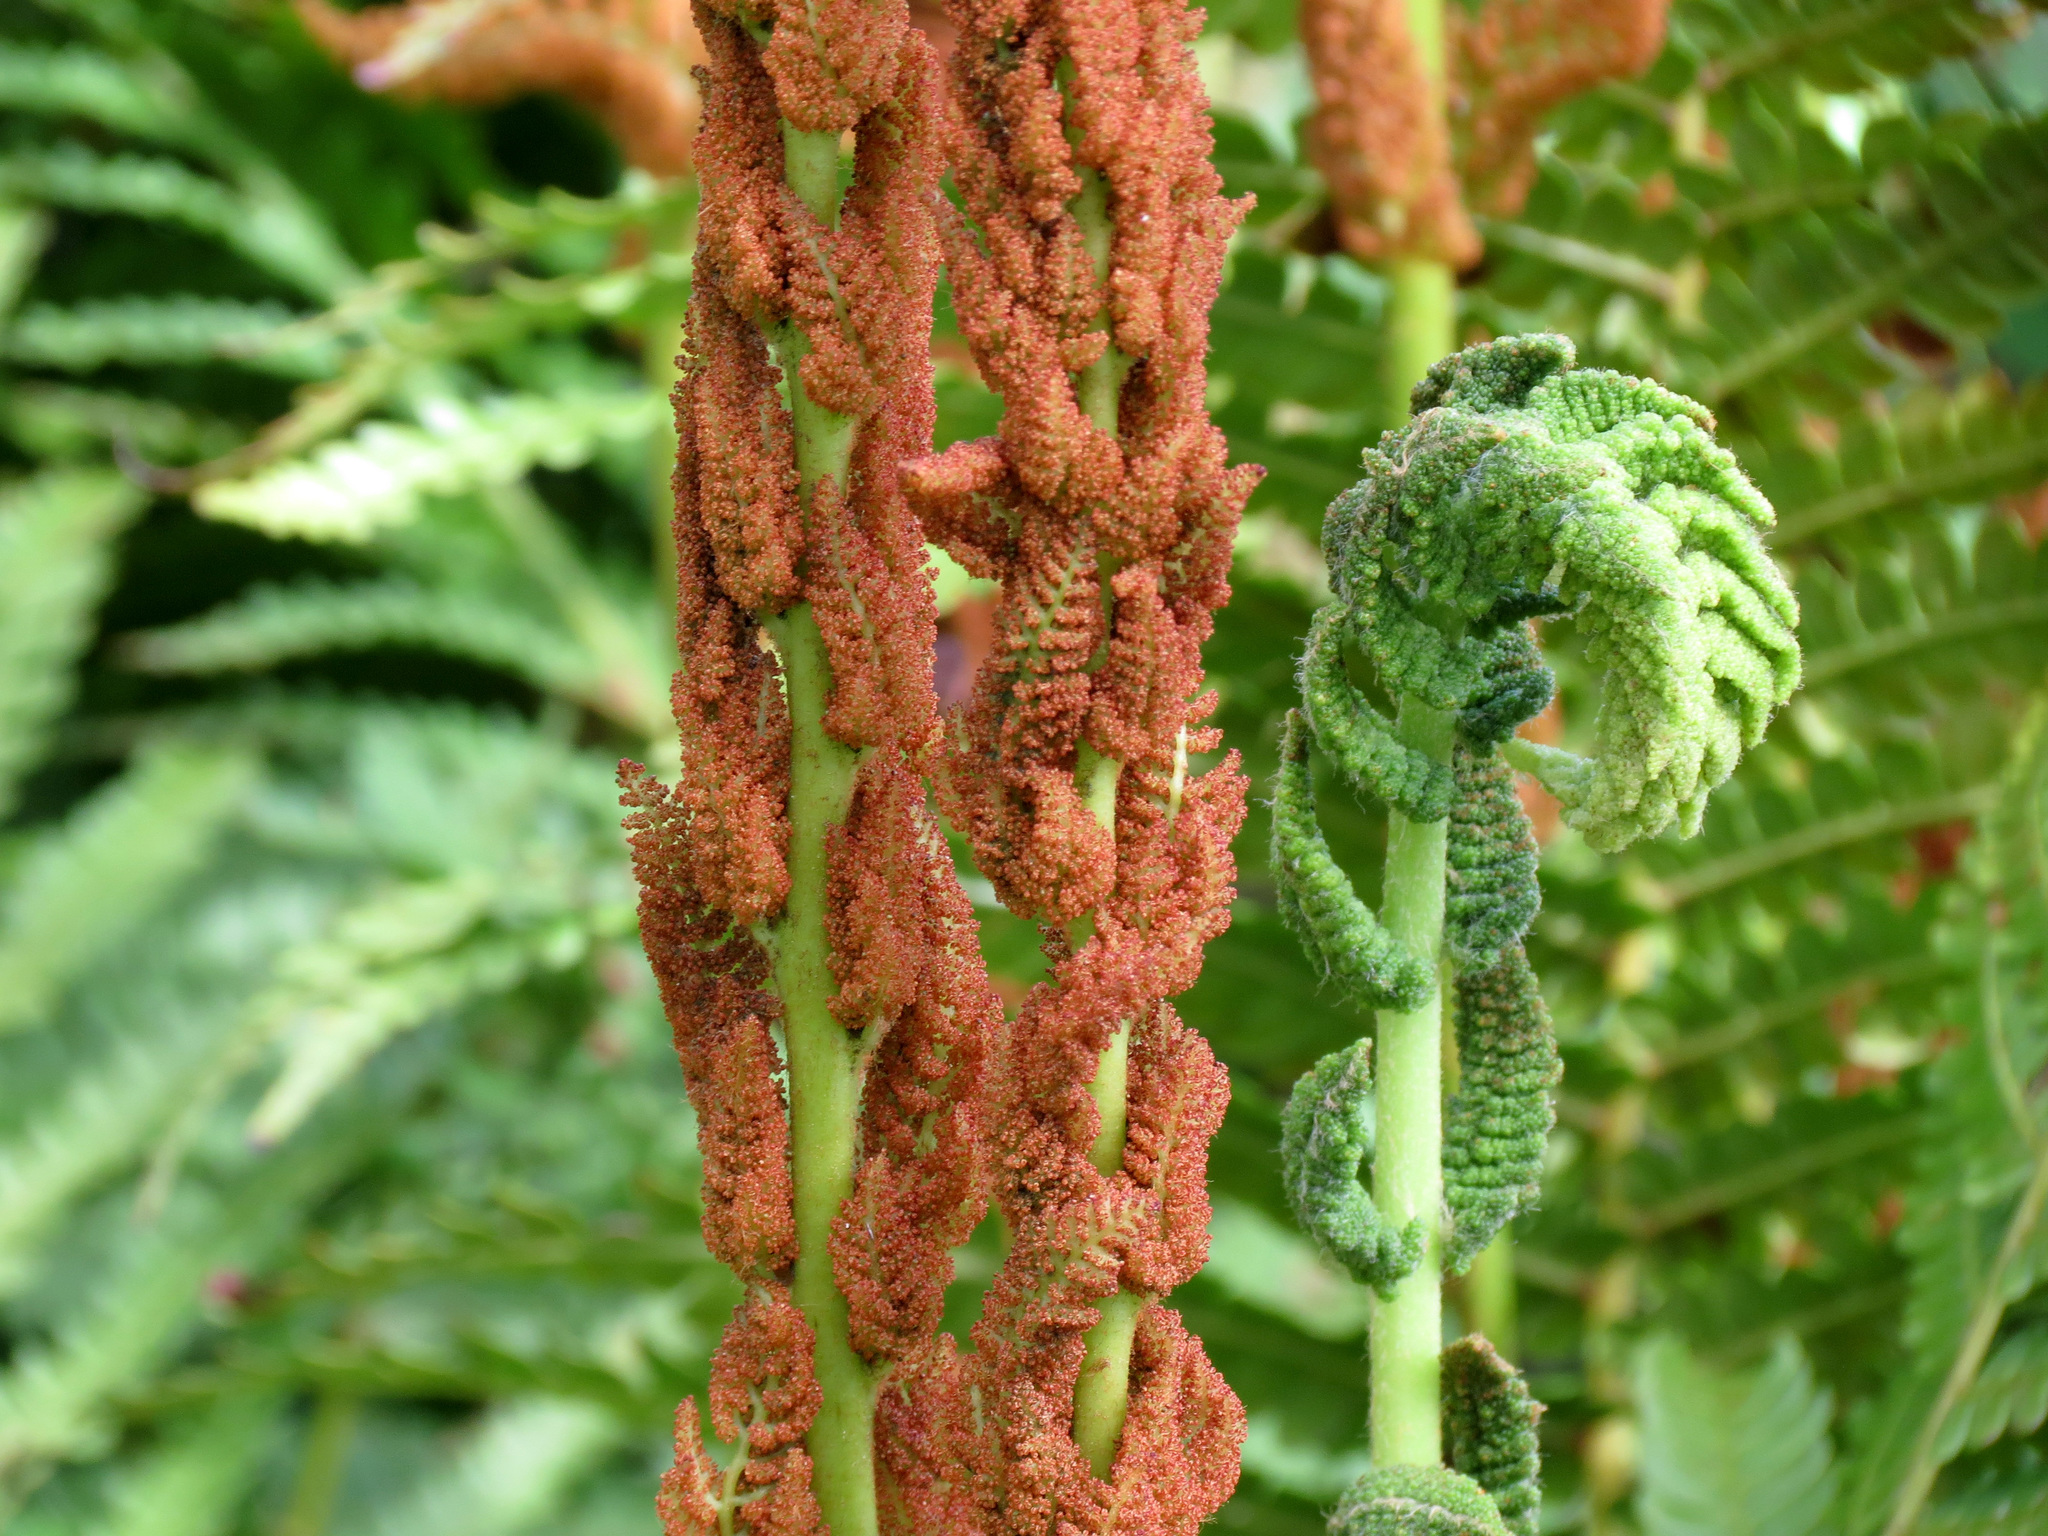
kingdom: Plantae
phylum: Tracheophyta
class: Polypodiopsida
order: Osmundales
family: Osmundaceae
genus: Osmundastrum
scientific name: Osmundastrum cinnamomeum
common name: Cinnamon fern
